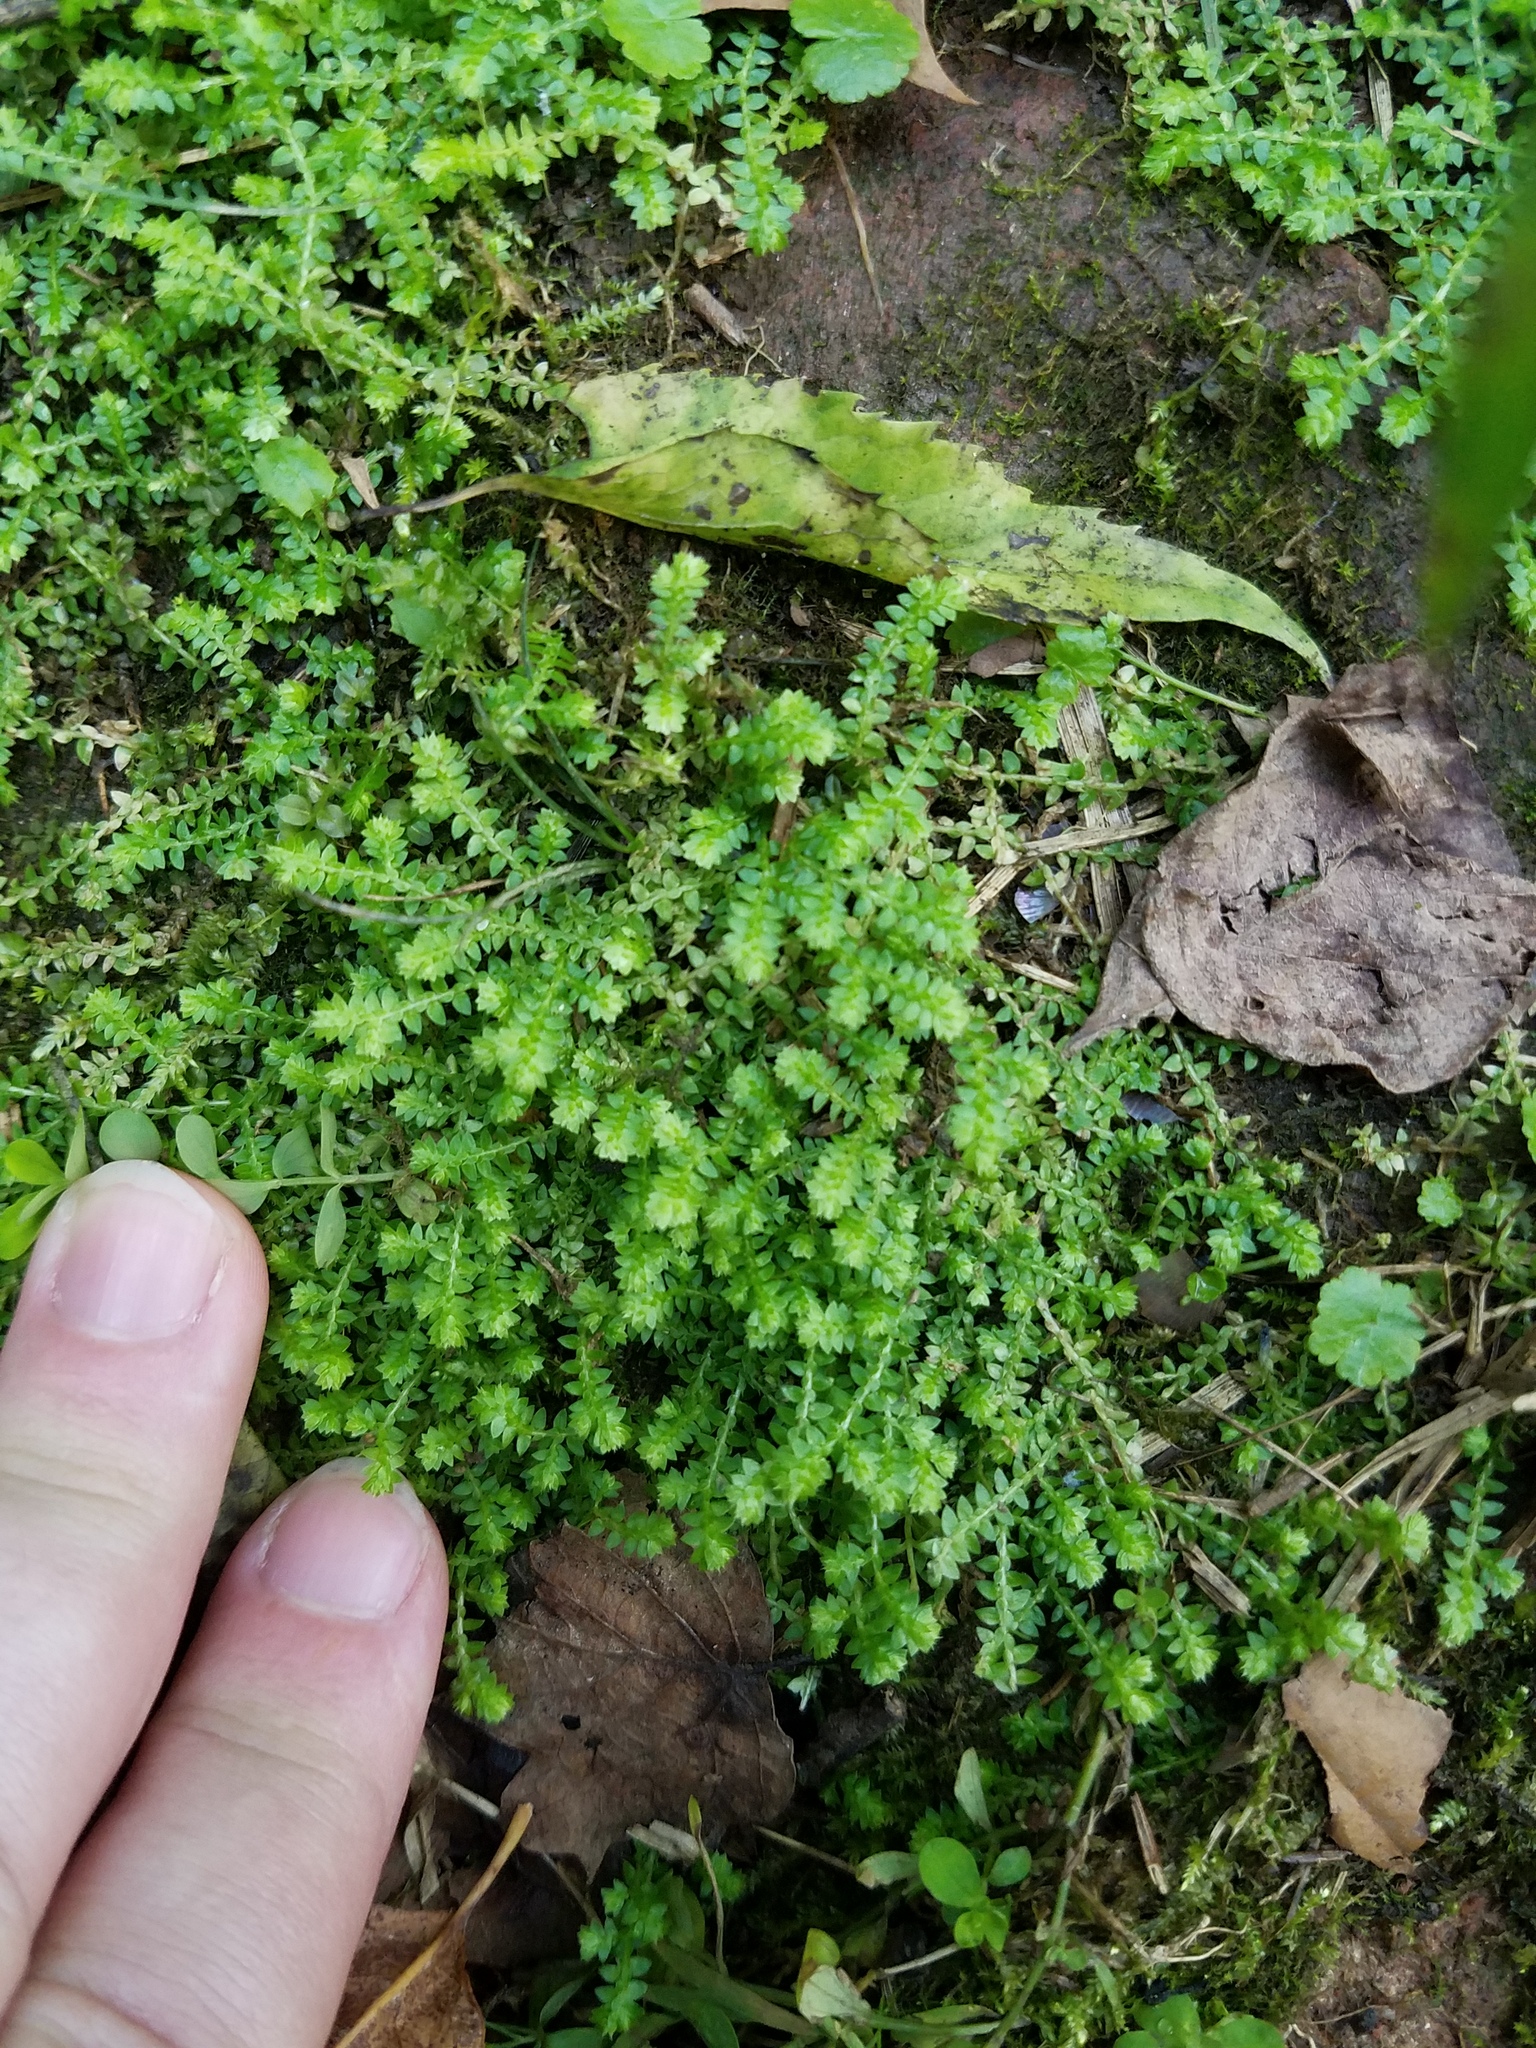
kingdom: Plantae
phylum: Tracheophyta
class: Lycopodiopsida
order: Selaginellales
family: Selaginellaceae
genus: Selaginella
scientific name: Selaginella apoda
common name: Creeping spikemoss
